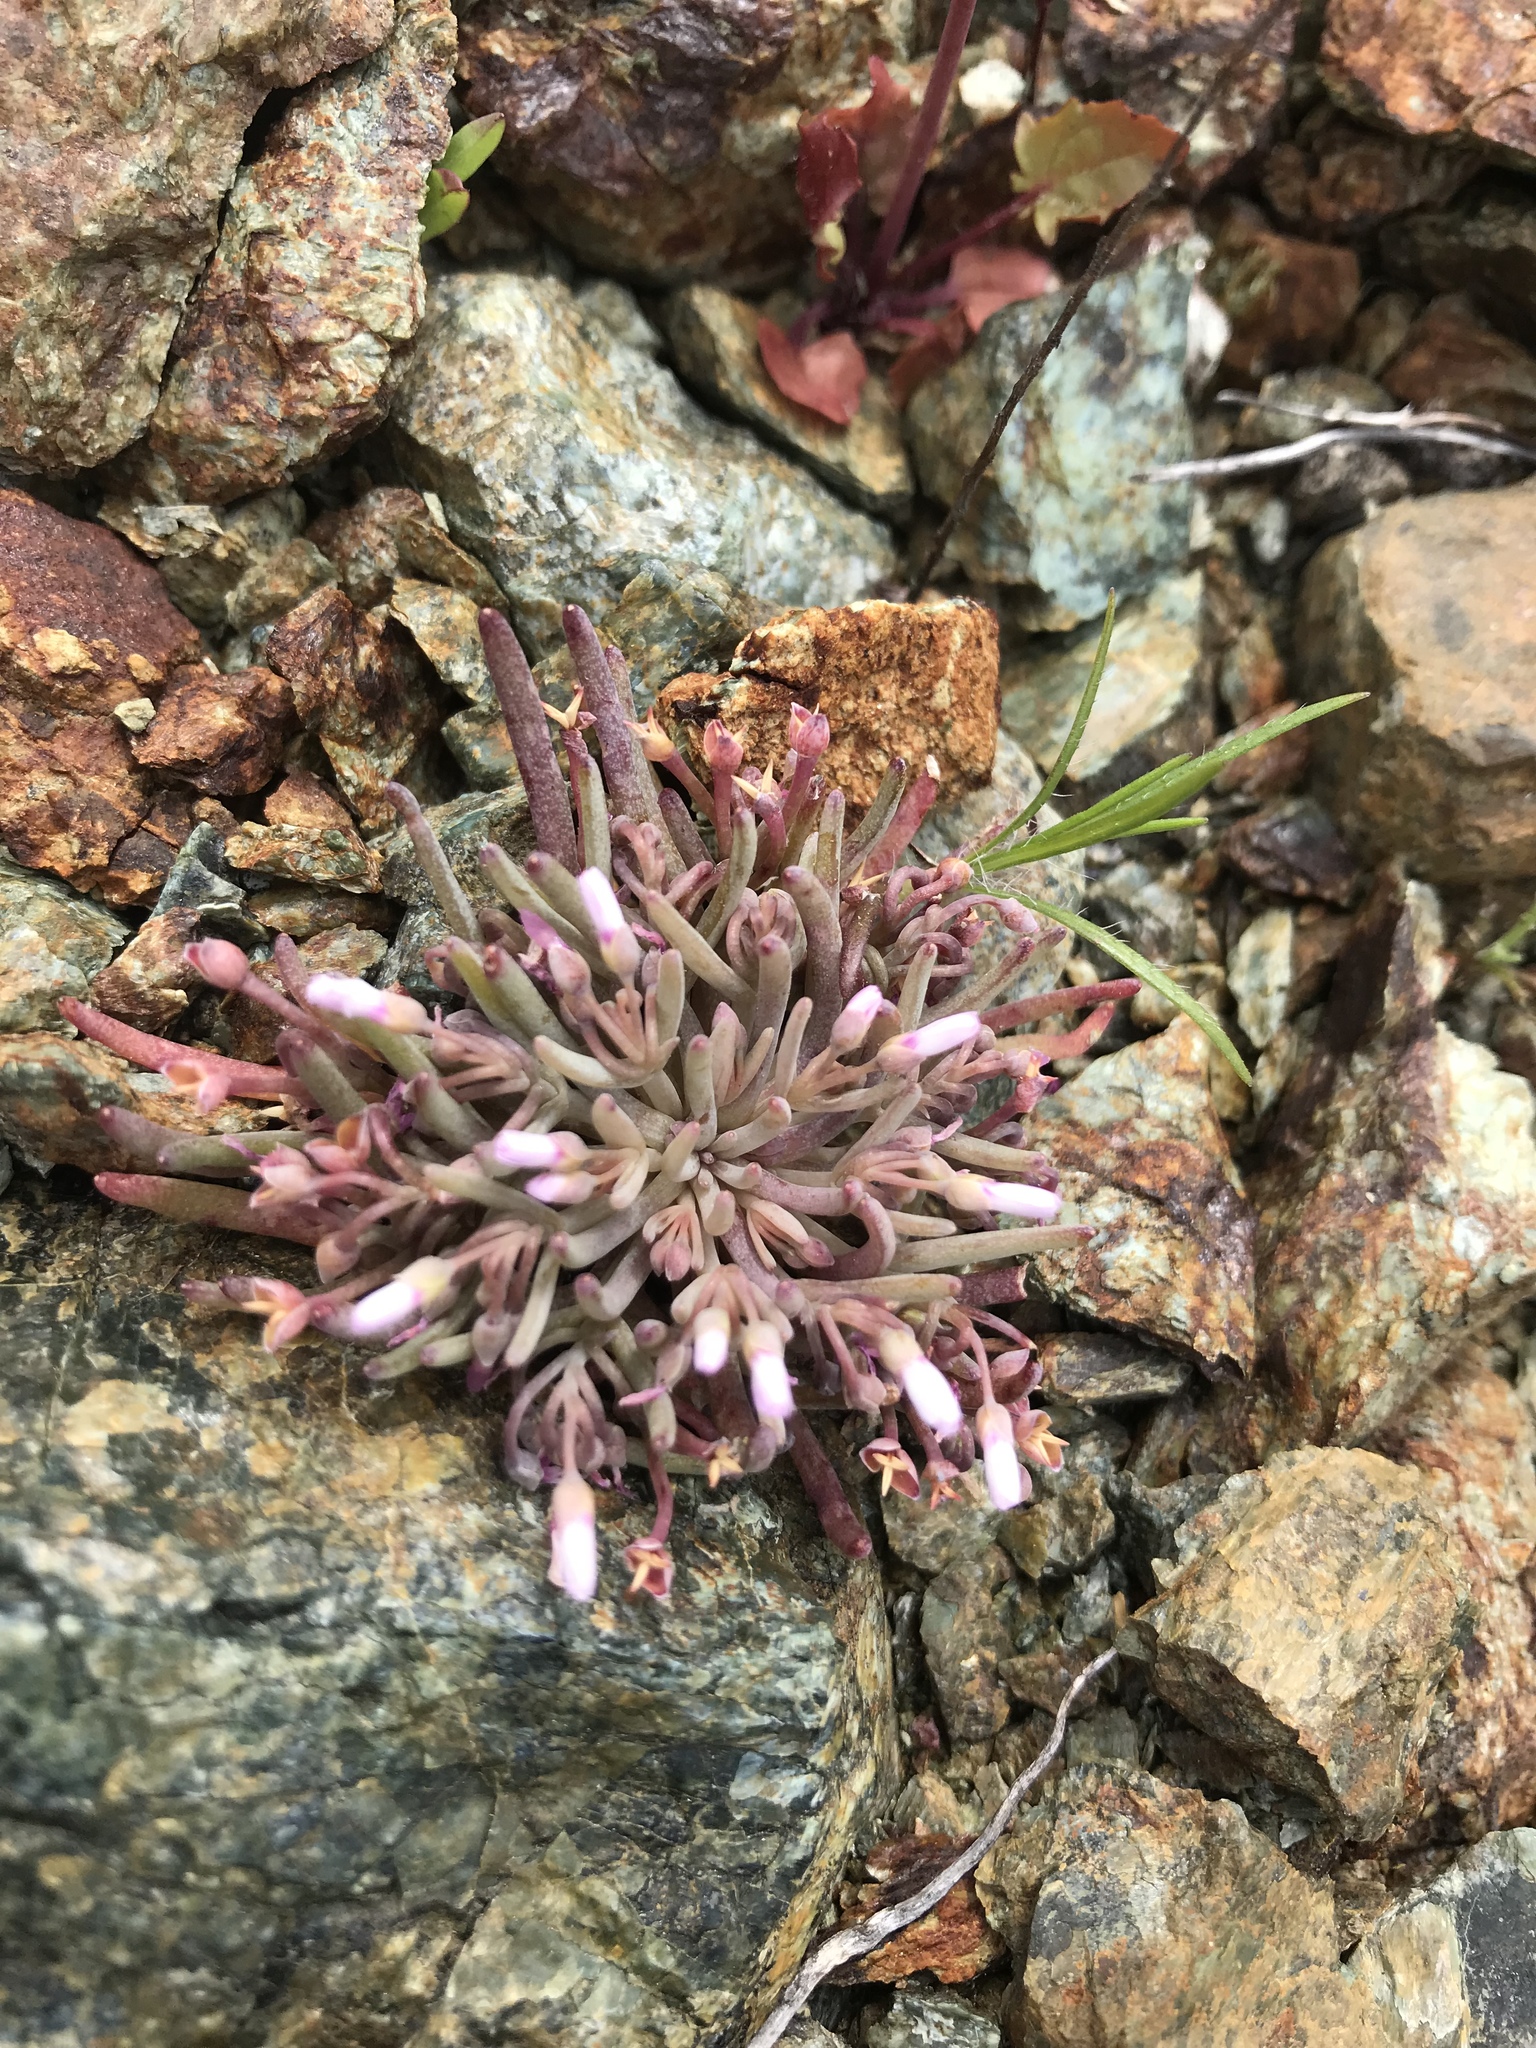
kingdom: Plantae
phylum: Tracheophyta
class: Magnoliopsida
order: Caryophyllales
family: Montiaceae
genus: Claytonia
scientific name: Claytonia exigua
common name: Pale spring beauty
